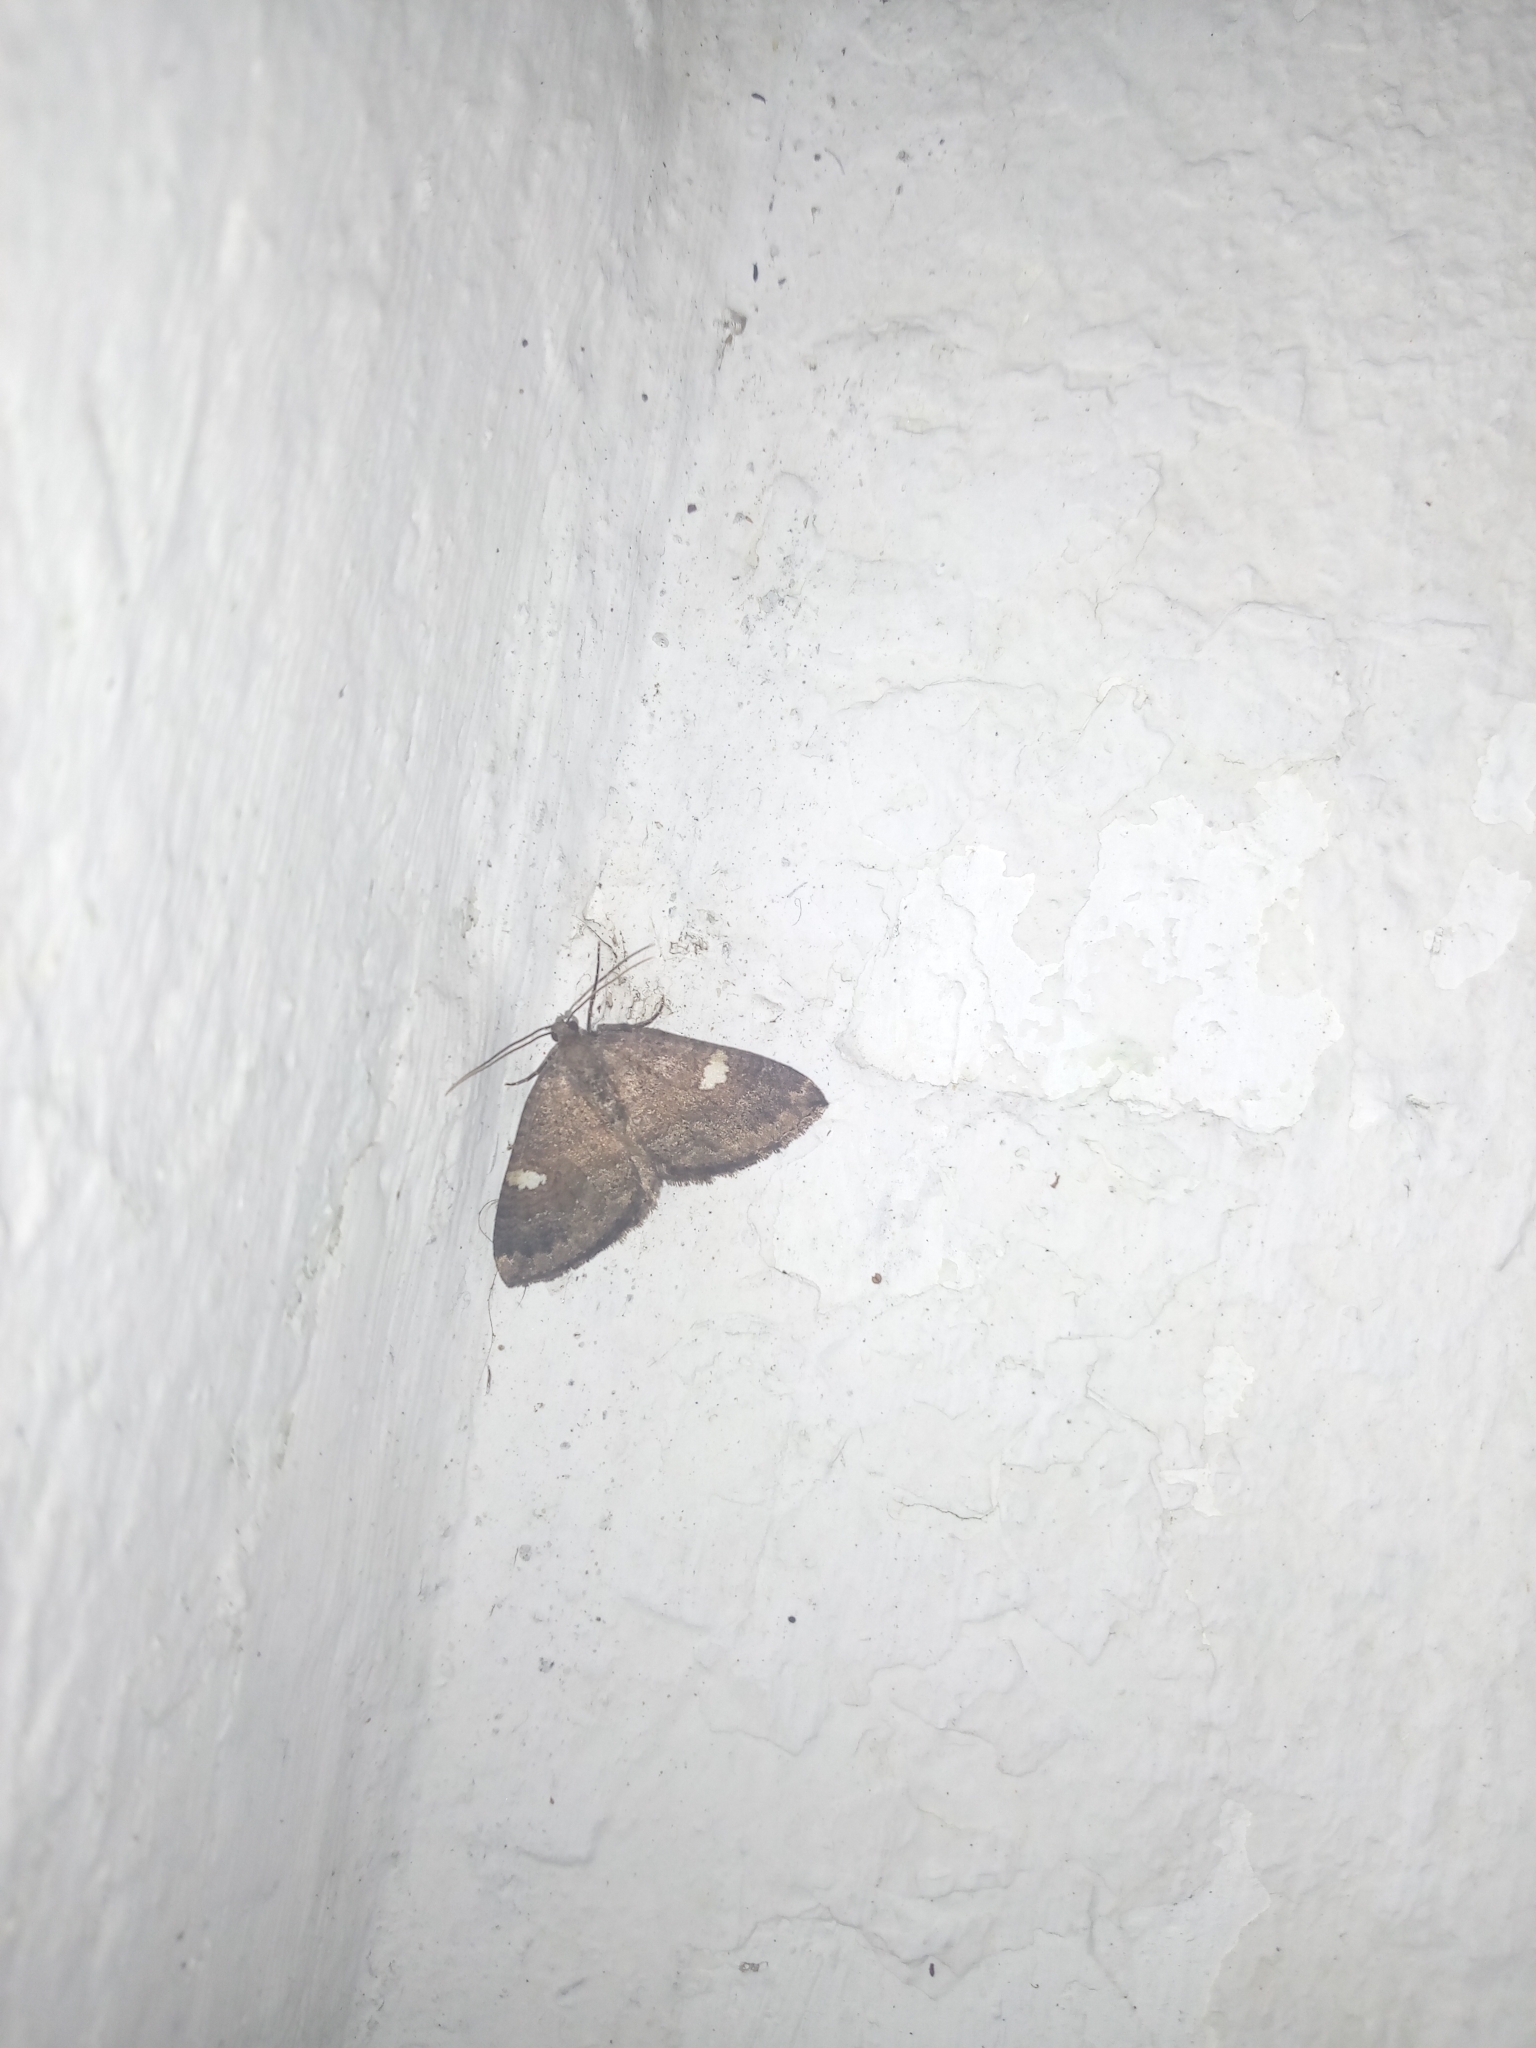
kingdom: Animalia
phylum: Arthropoda
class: Insecta
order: Lepidoptera
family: Geometridae
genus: Nebula
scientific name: Nebula malvata
